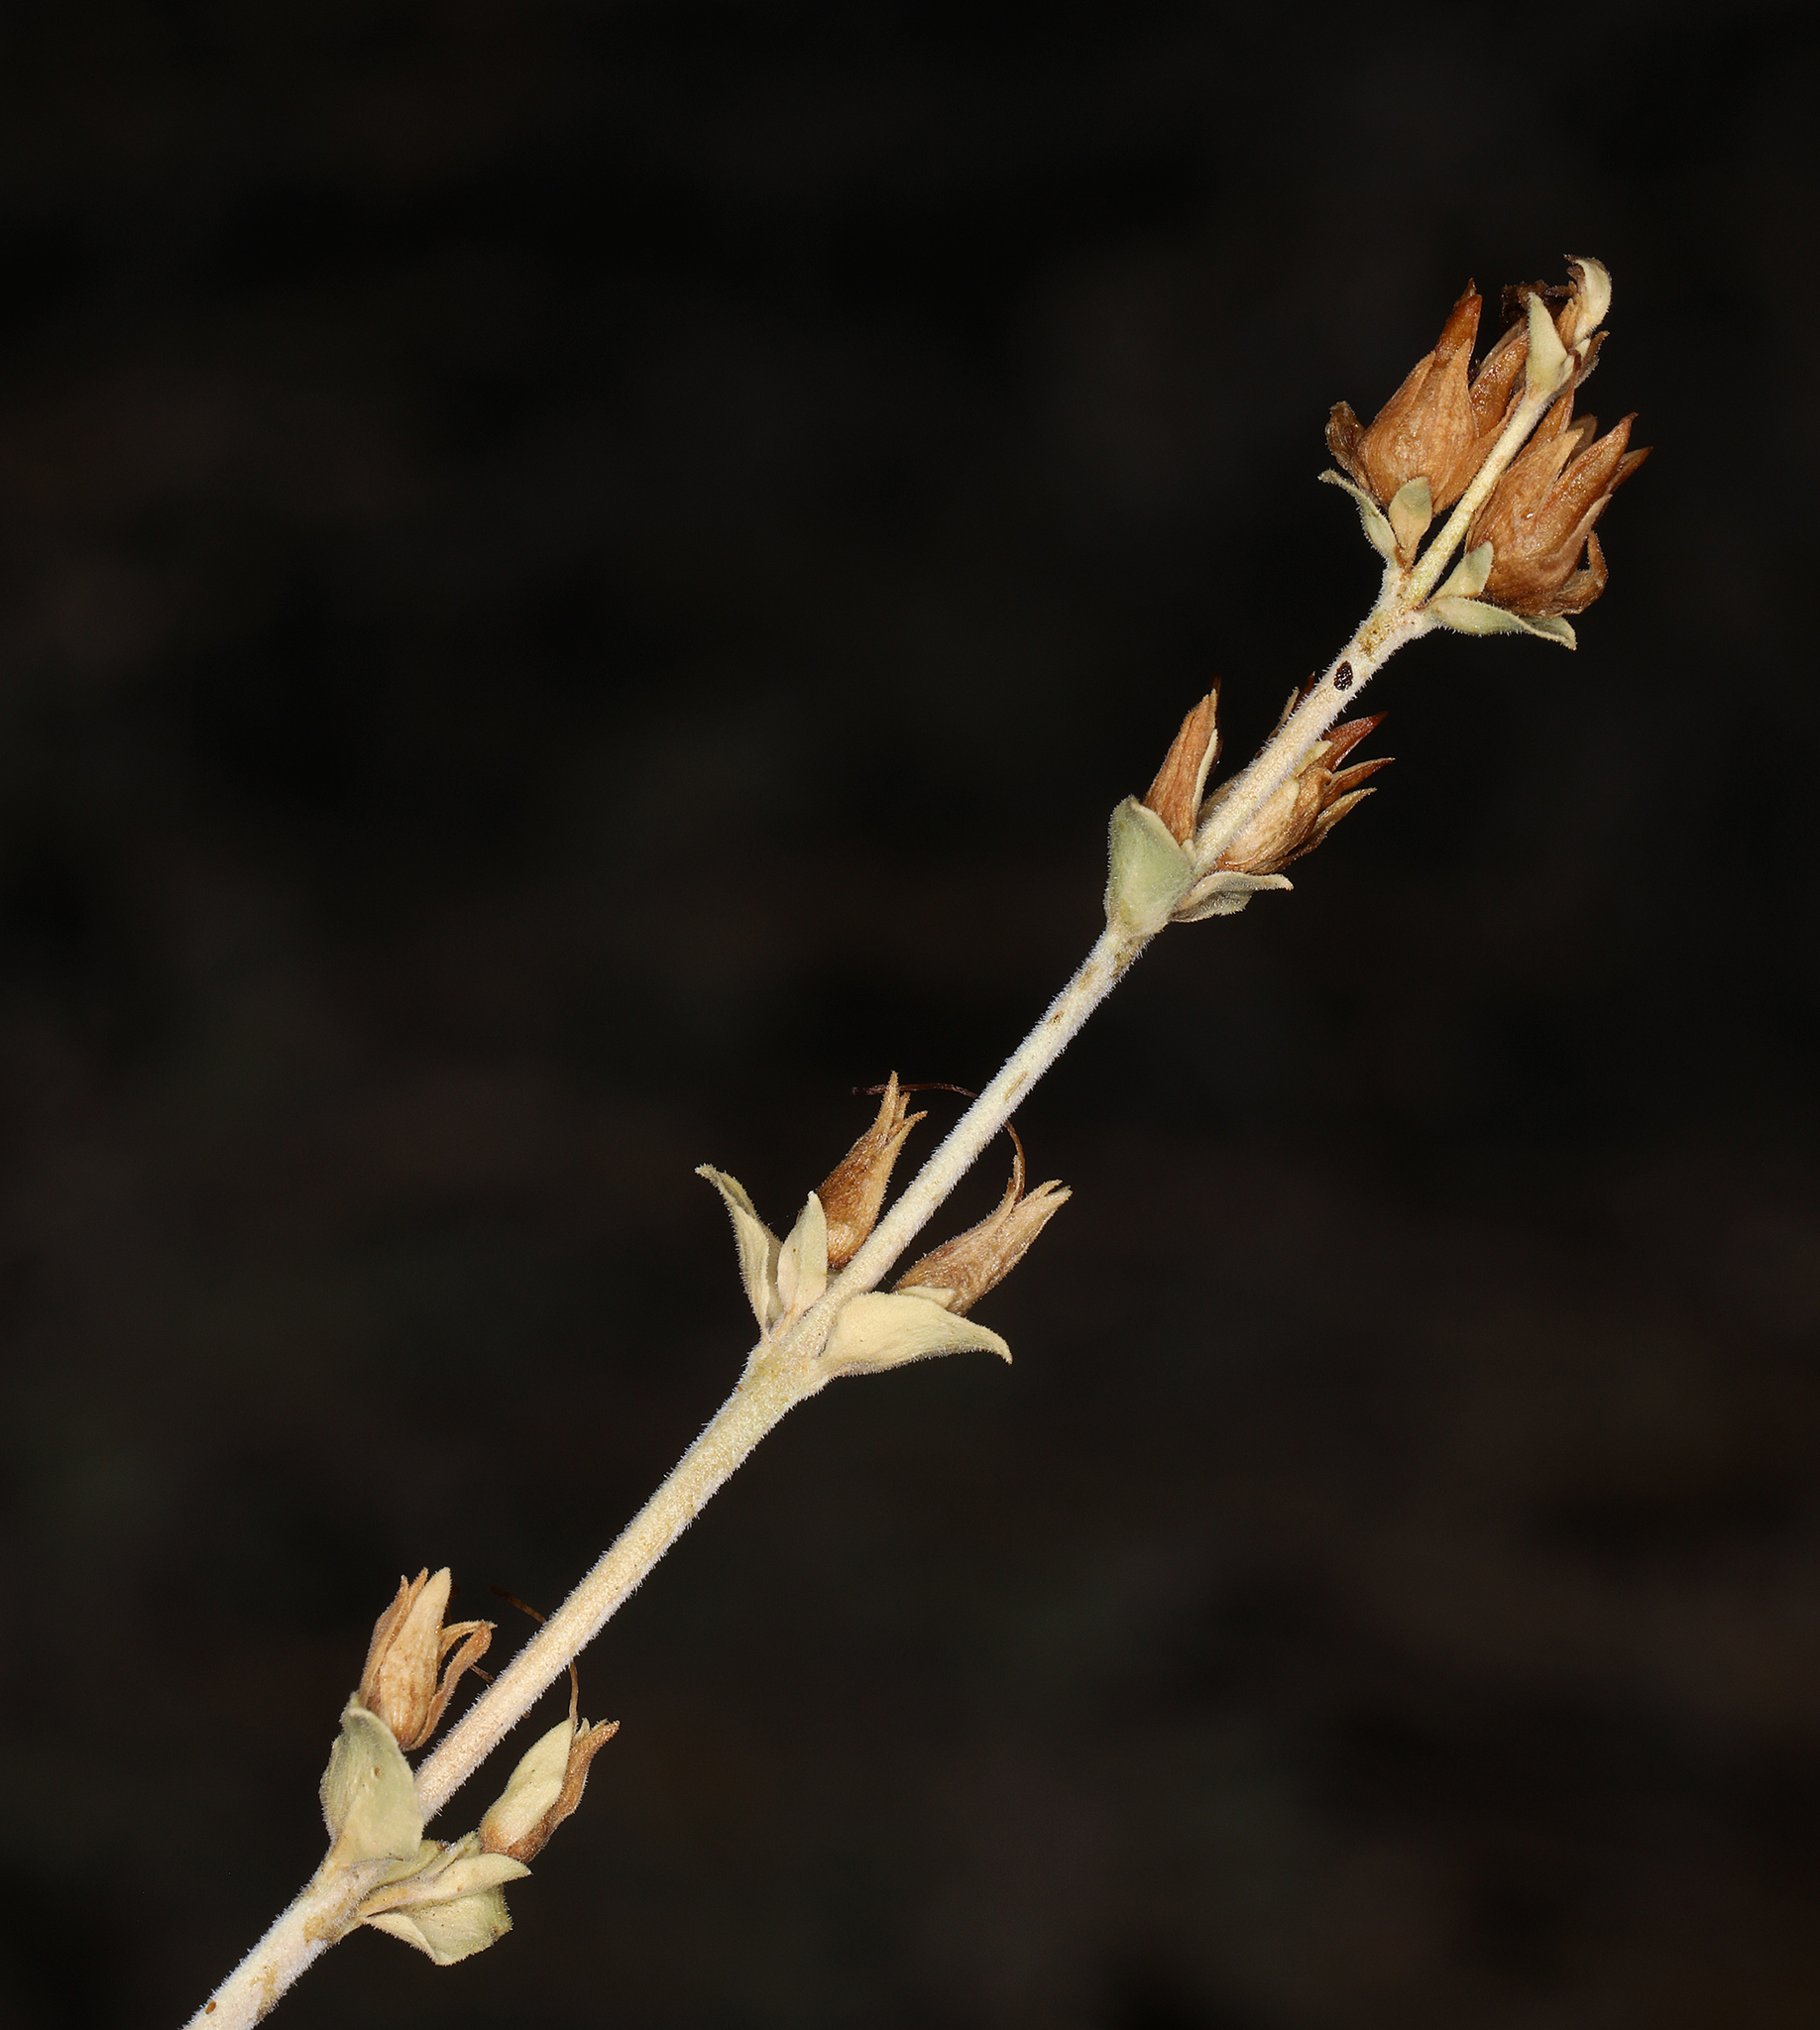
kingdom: Plantae
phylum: Tracheophyta
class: Magnoliopsida
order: Lamiales
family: Plantaginaceae
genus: Keckiella
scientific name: Keckiella rothrockii
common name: Rothrock's keckiella
